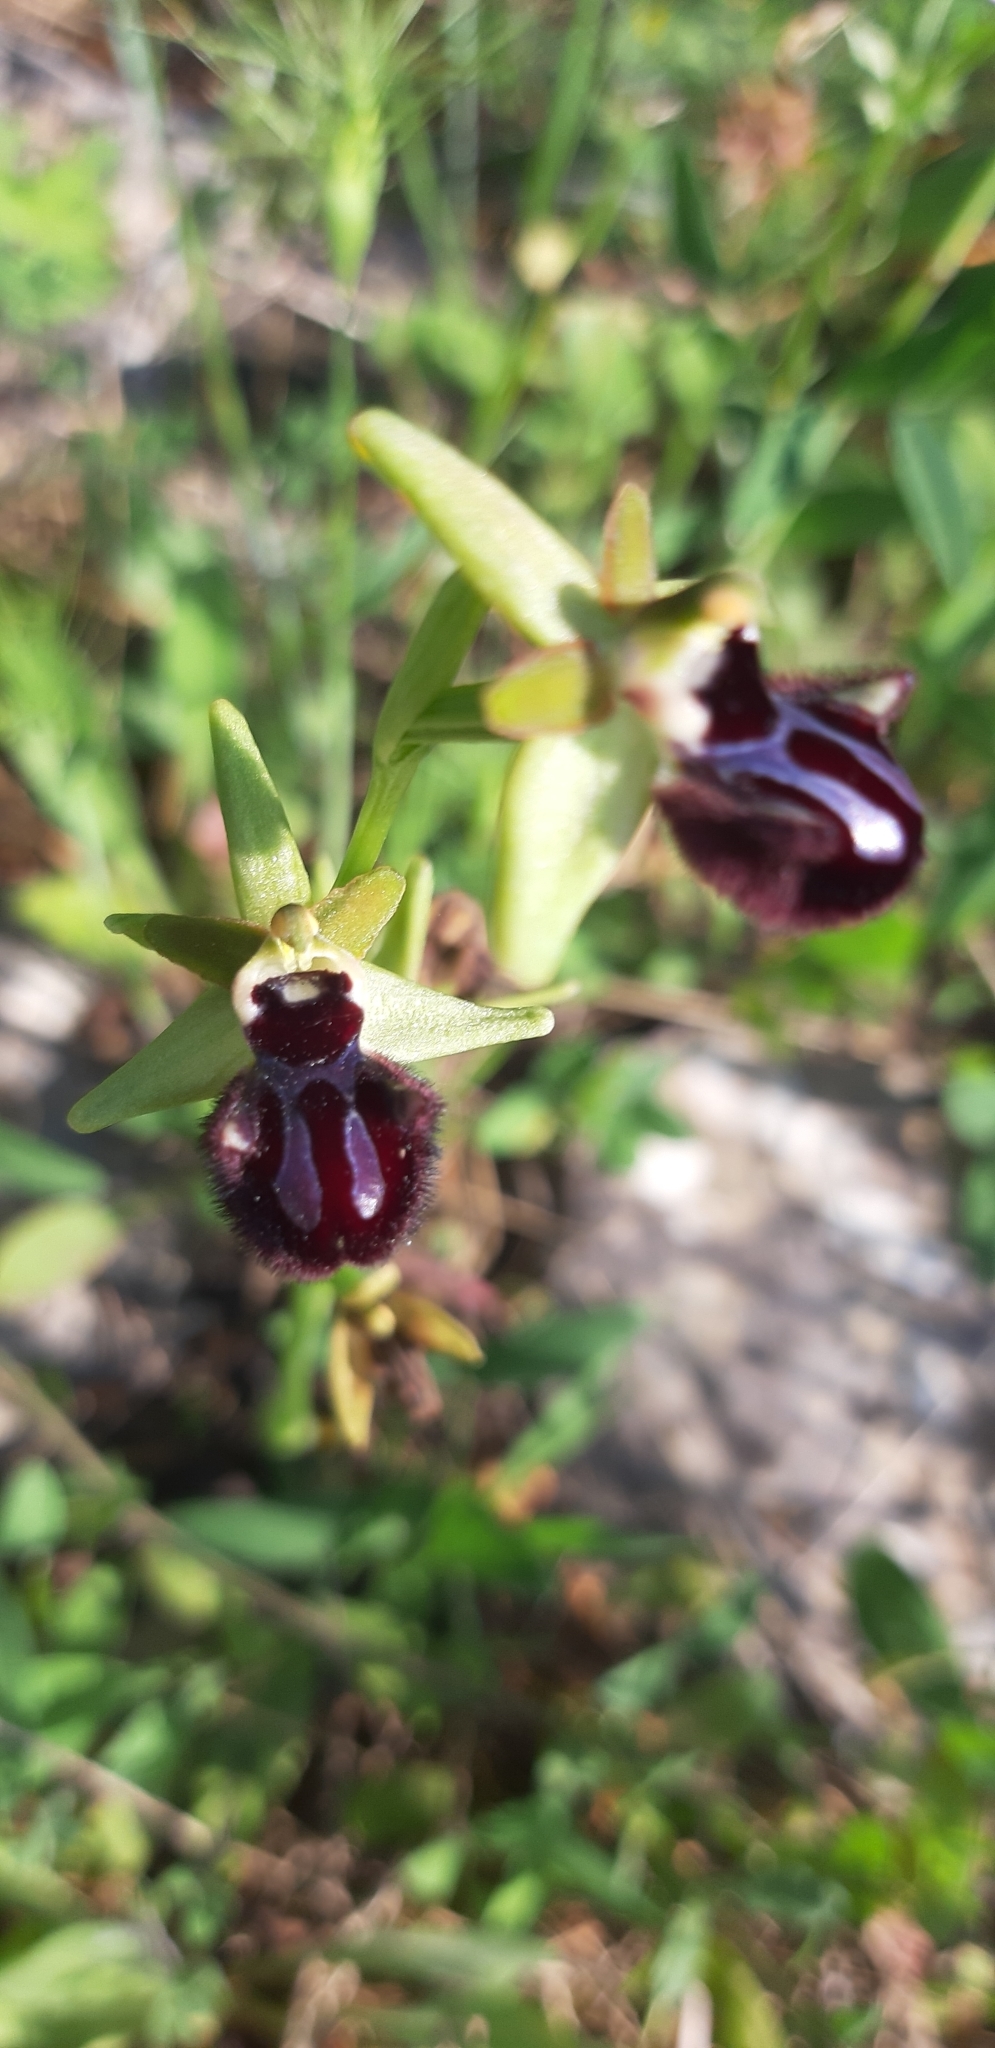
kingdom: Plantae
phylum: Tracheophyta
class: Liliopsida
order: Asparagales
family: Orchidaceae
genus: Ophrys
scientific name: Ophrys sphegodes
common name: Early spider-orchid
